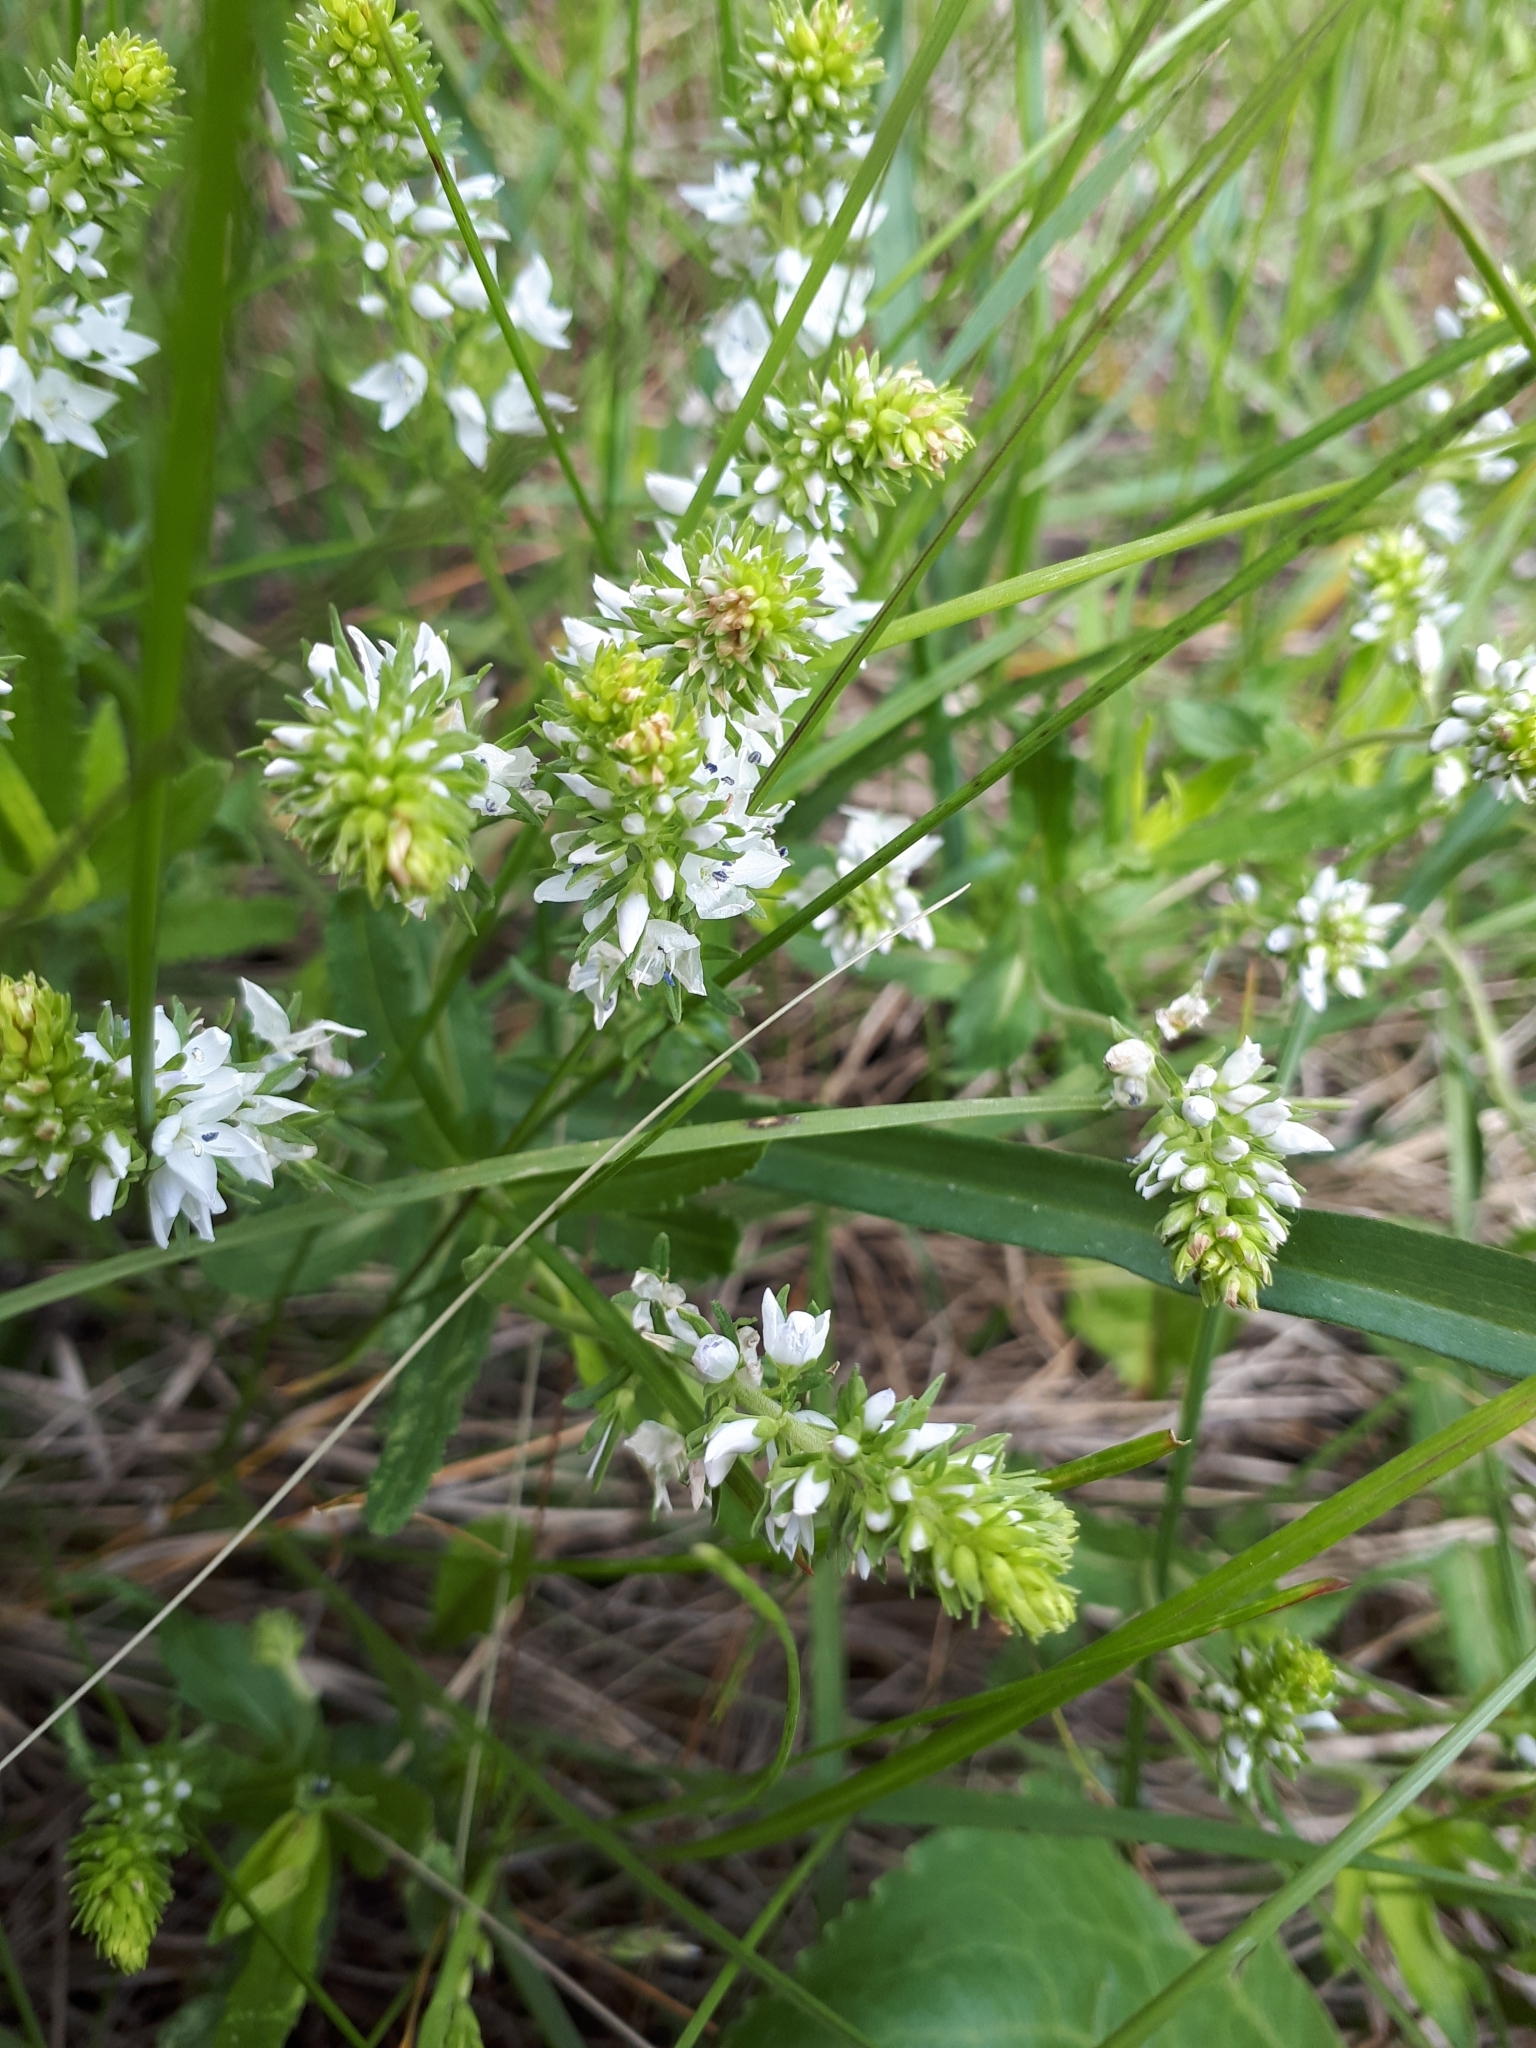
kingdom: Plantae
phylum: Tracheophyta
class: Magnoliopsida
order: Lamiales
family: Plantaginaceae
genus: Veronica
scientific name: Veronica prostrata
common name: Prostrate speedwell
